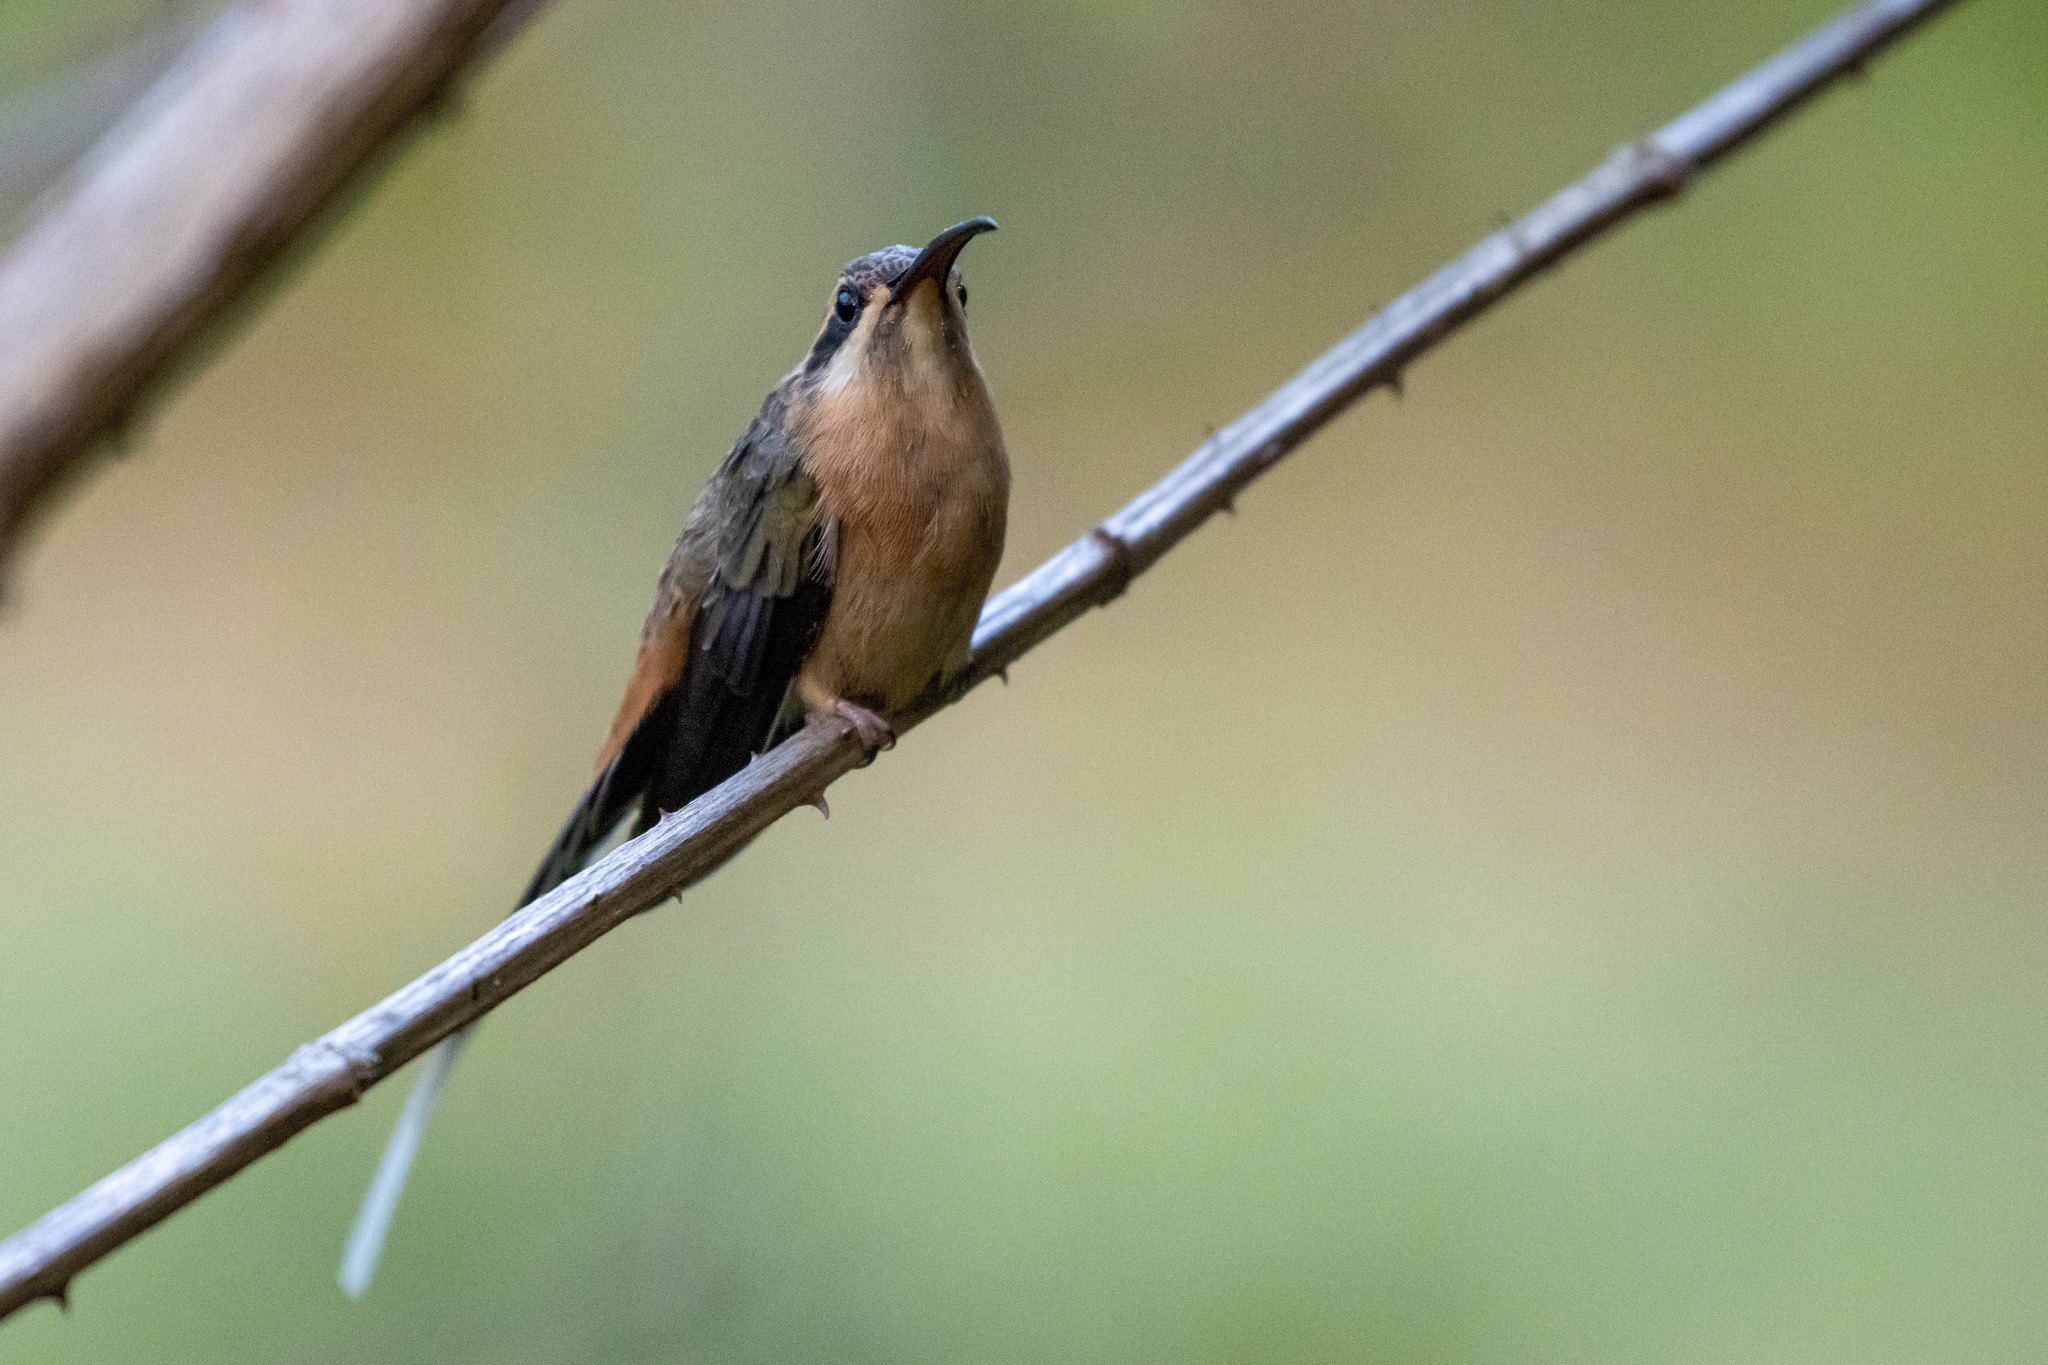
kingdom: Animalia
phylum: Chordata
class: Aves
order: Apodiformes
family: Trochilidae
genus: Phaethornis
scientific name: Phaethornis pretrei
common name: Planalto hermit
